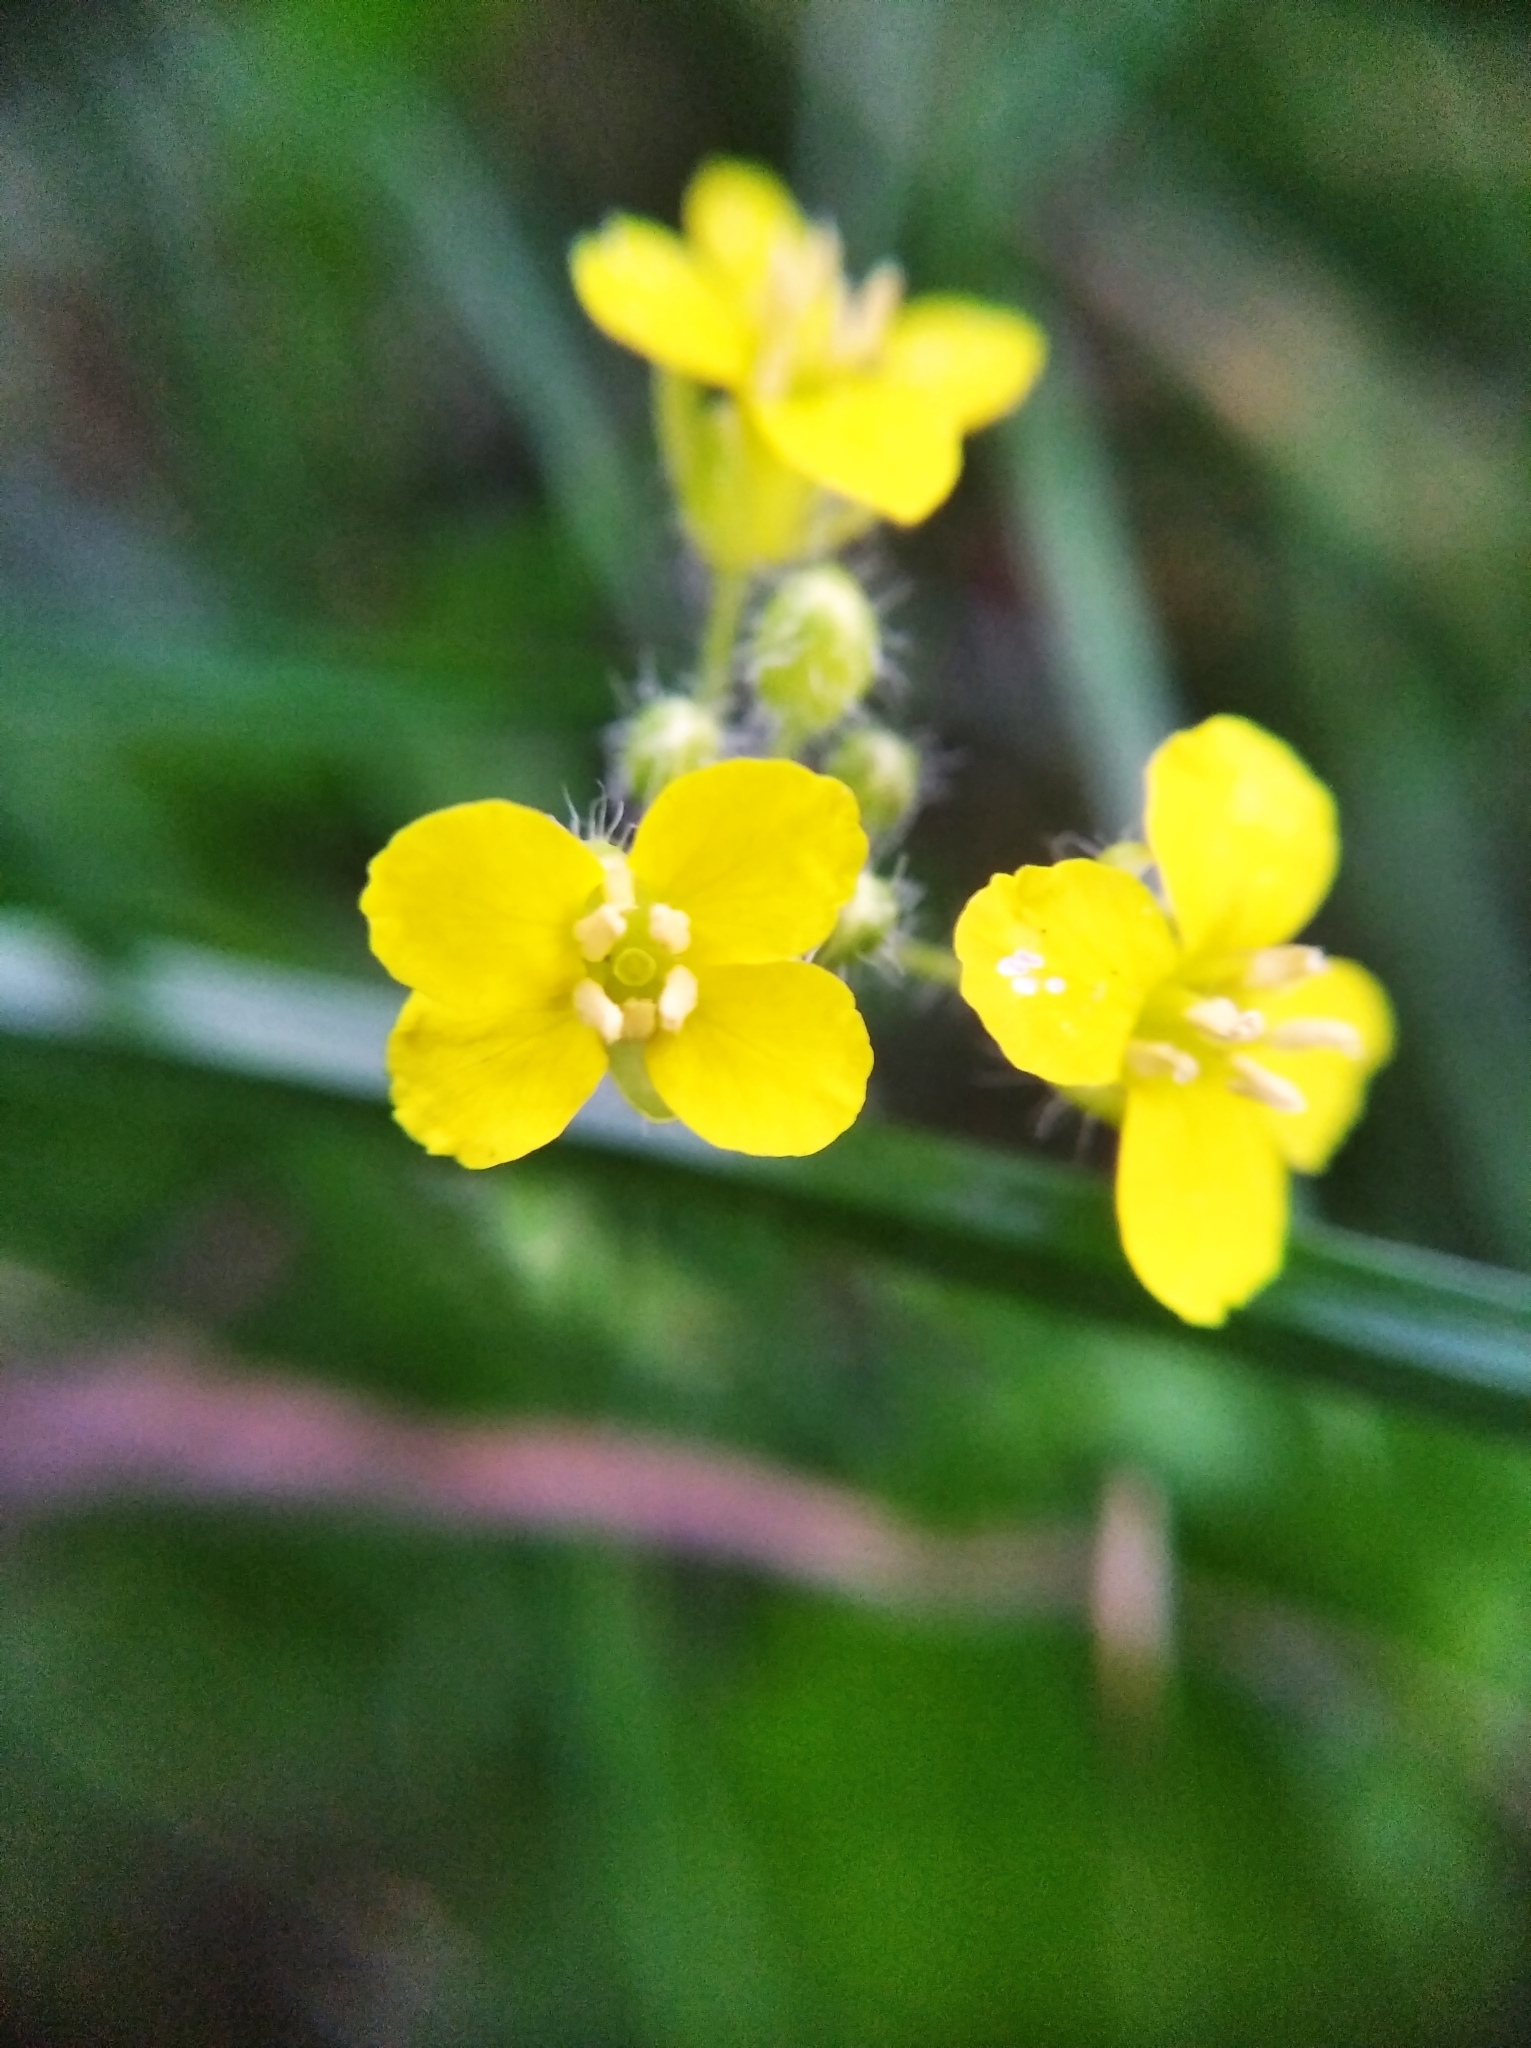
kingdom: Plantae
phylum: Tracheophyta
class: Magnoliopsida
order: Brassicales
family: Brassicaceae
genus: Sisymbrium
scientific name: Sisymbrium loeselii
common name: False london-rocket
